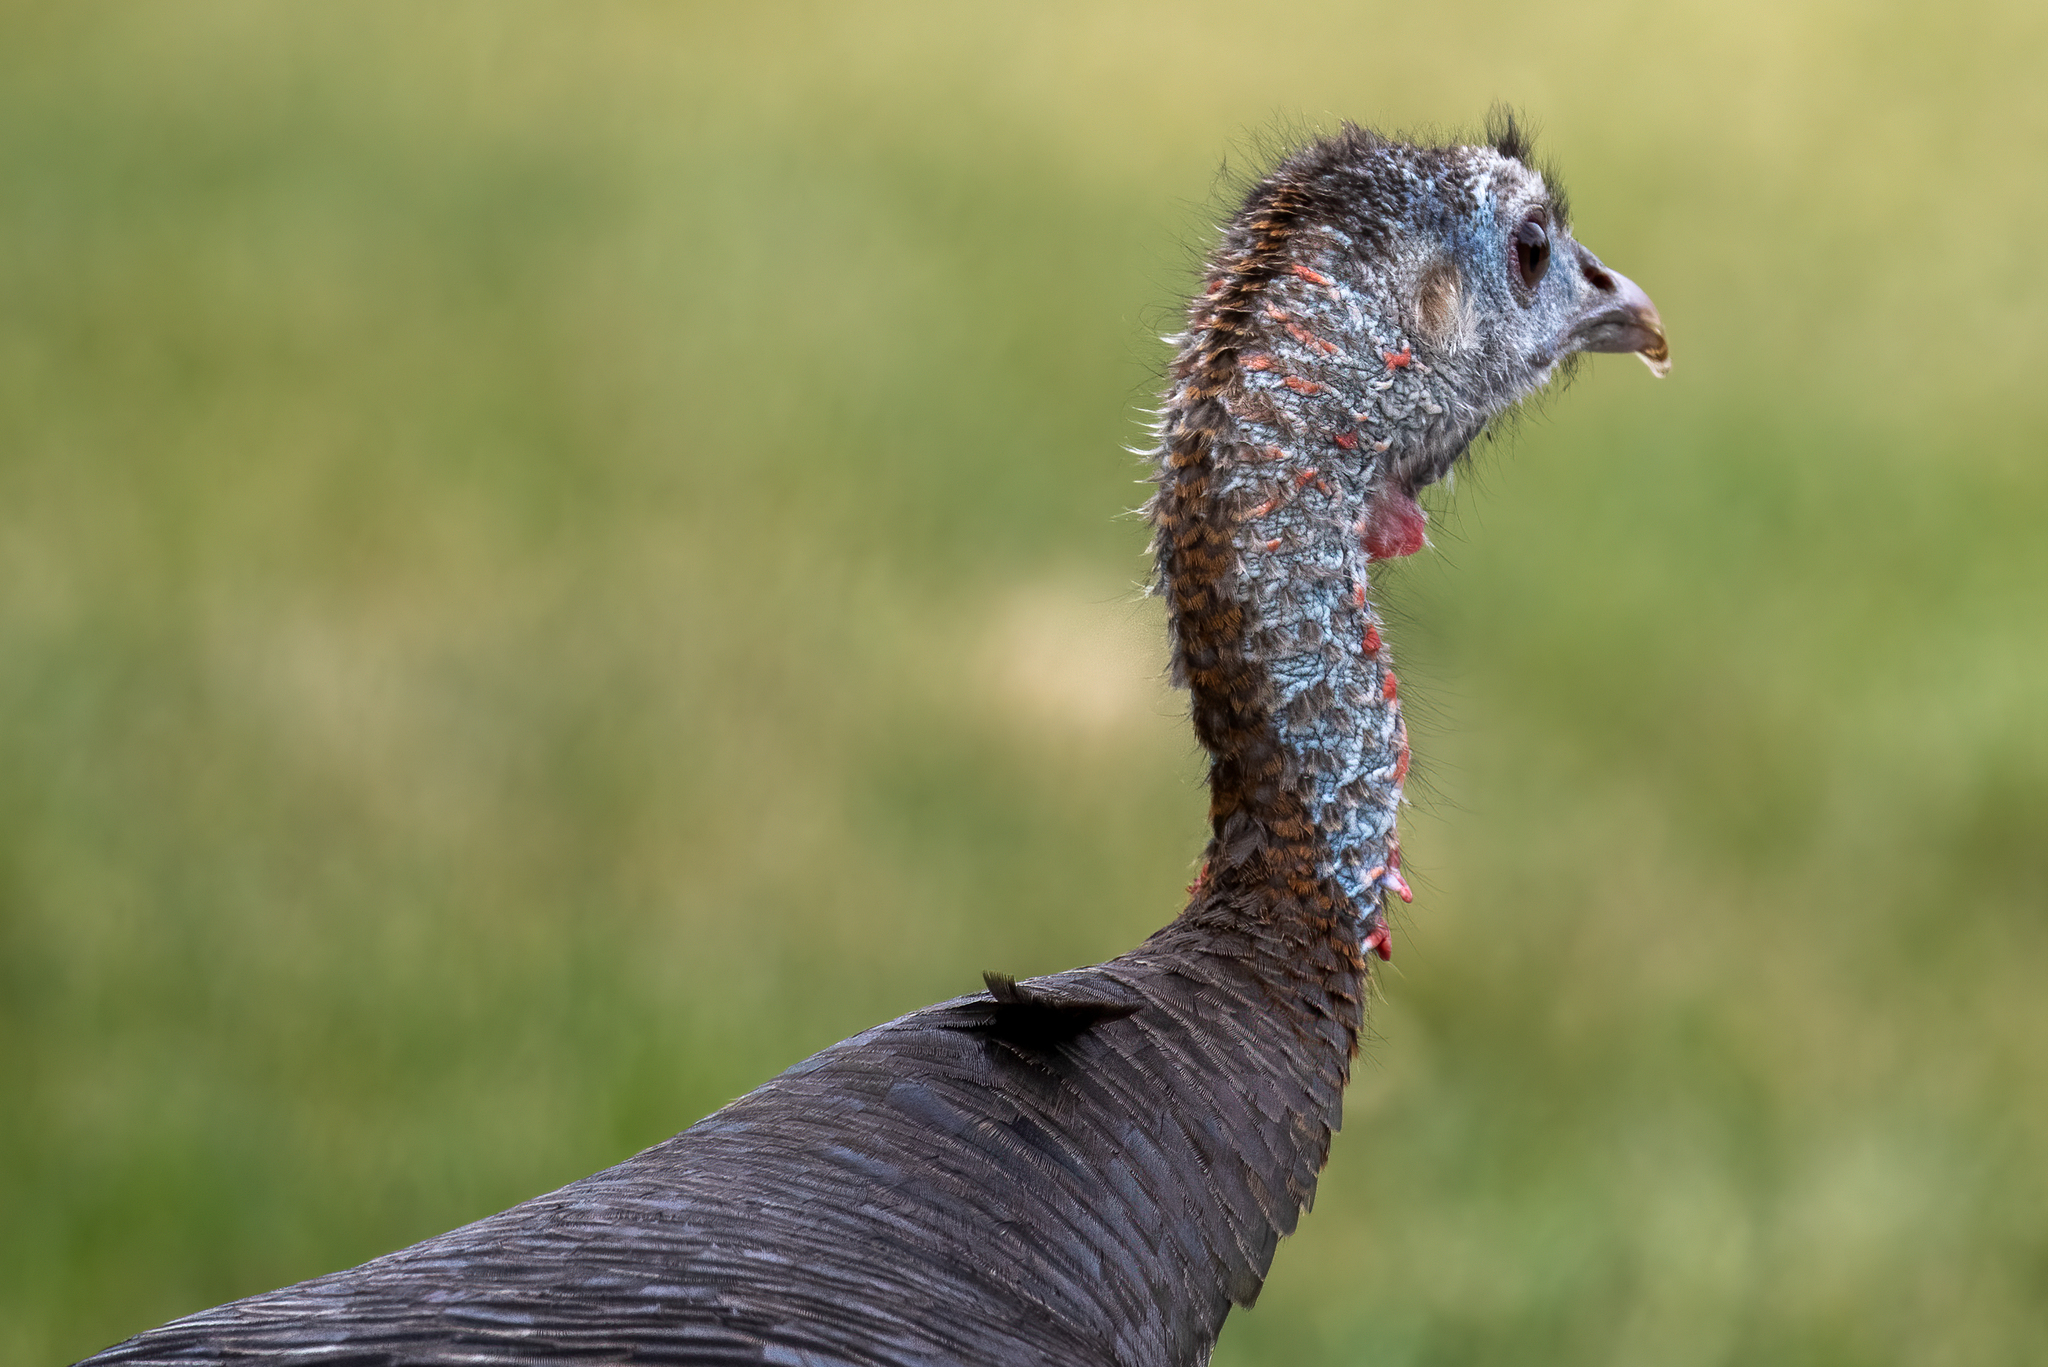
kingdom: Animalia
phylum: Chordata
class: Aves
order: Galliformes
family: Phasianidae
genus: Meleagris
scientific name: Meleagris gallopavo
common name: Wild turkey
